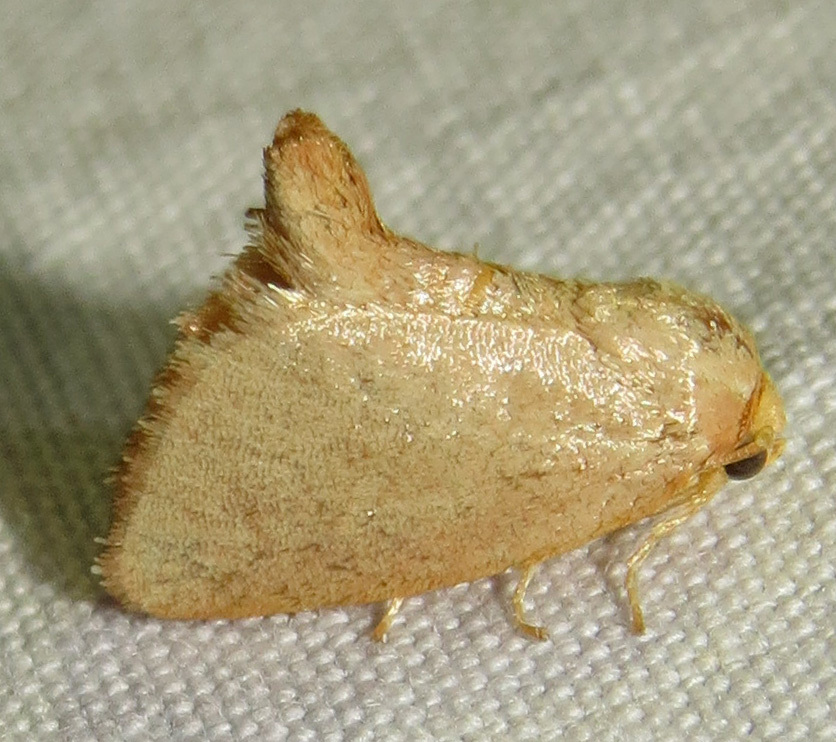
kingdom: Animalia
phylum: Arthropoda
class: Insecta
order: Lepidoptera
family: Limacodidae
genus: Tortricidia
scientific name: Tortricidia pallida
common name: Red-crossed button slug moth
